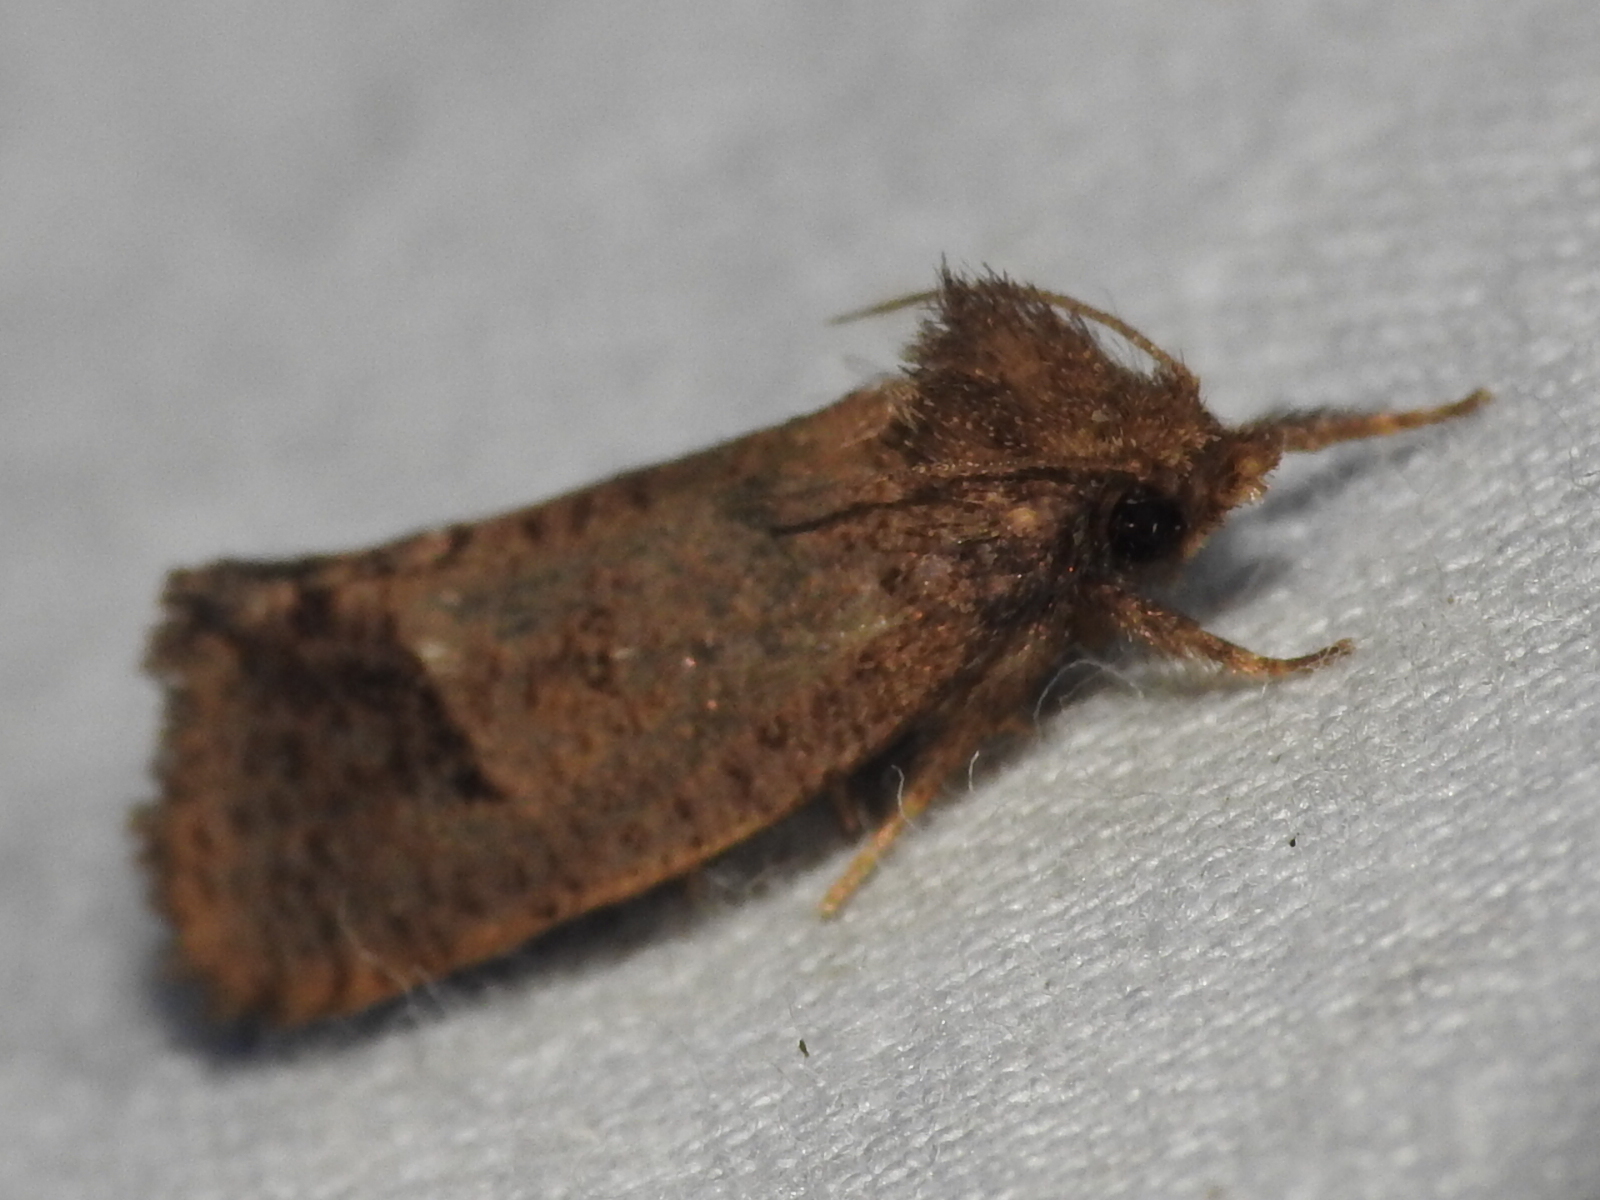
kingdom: Animalia
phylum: Arthropoda
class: Insecta
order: Lepidoptera
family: Tineidae
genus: Acrolophus
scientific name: Acrolophus texanella
